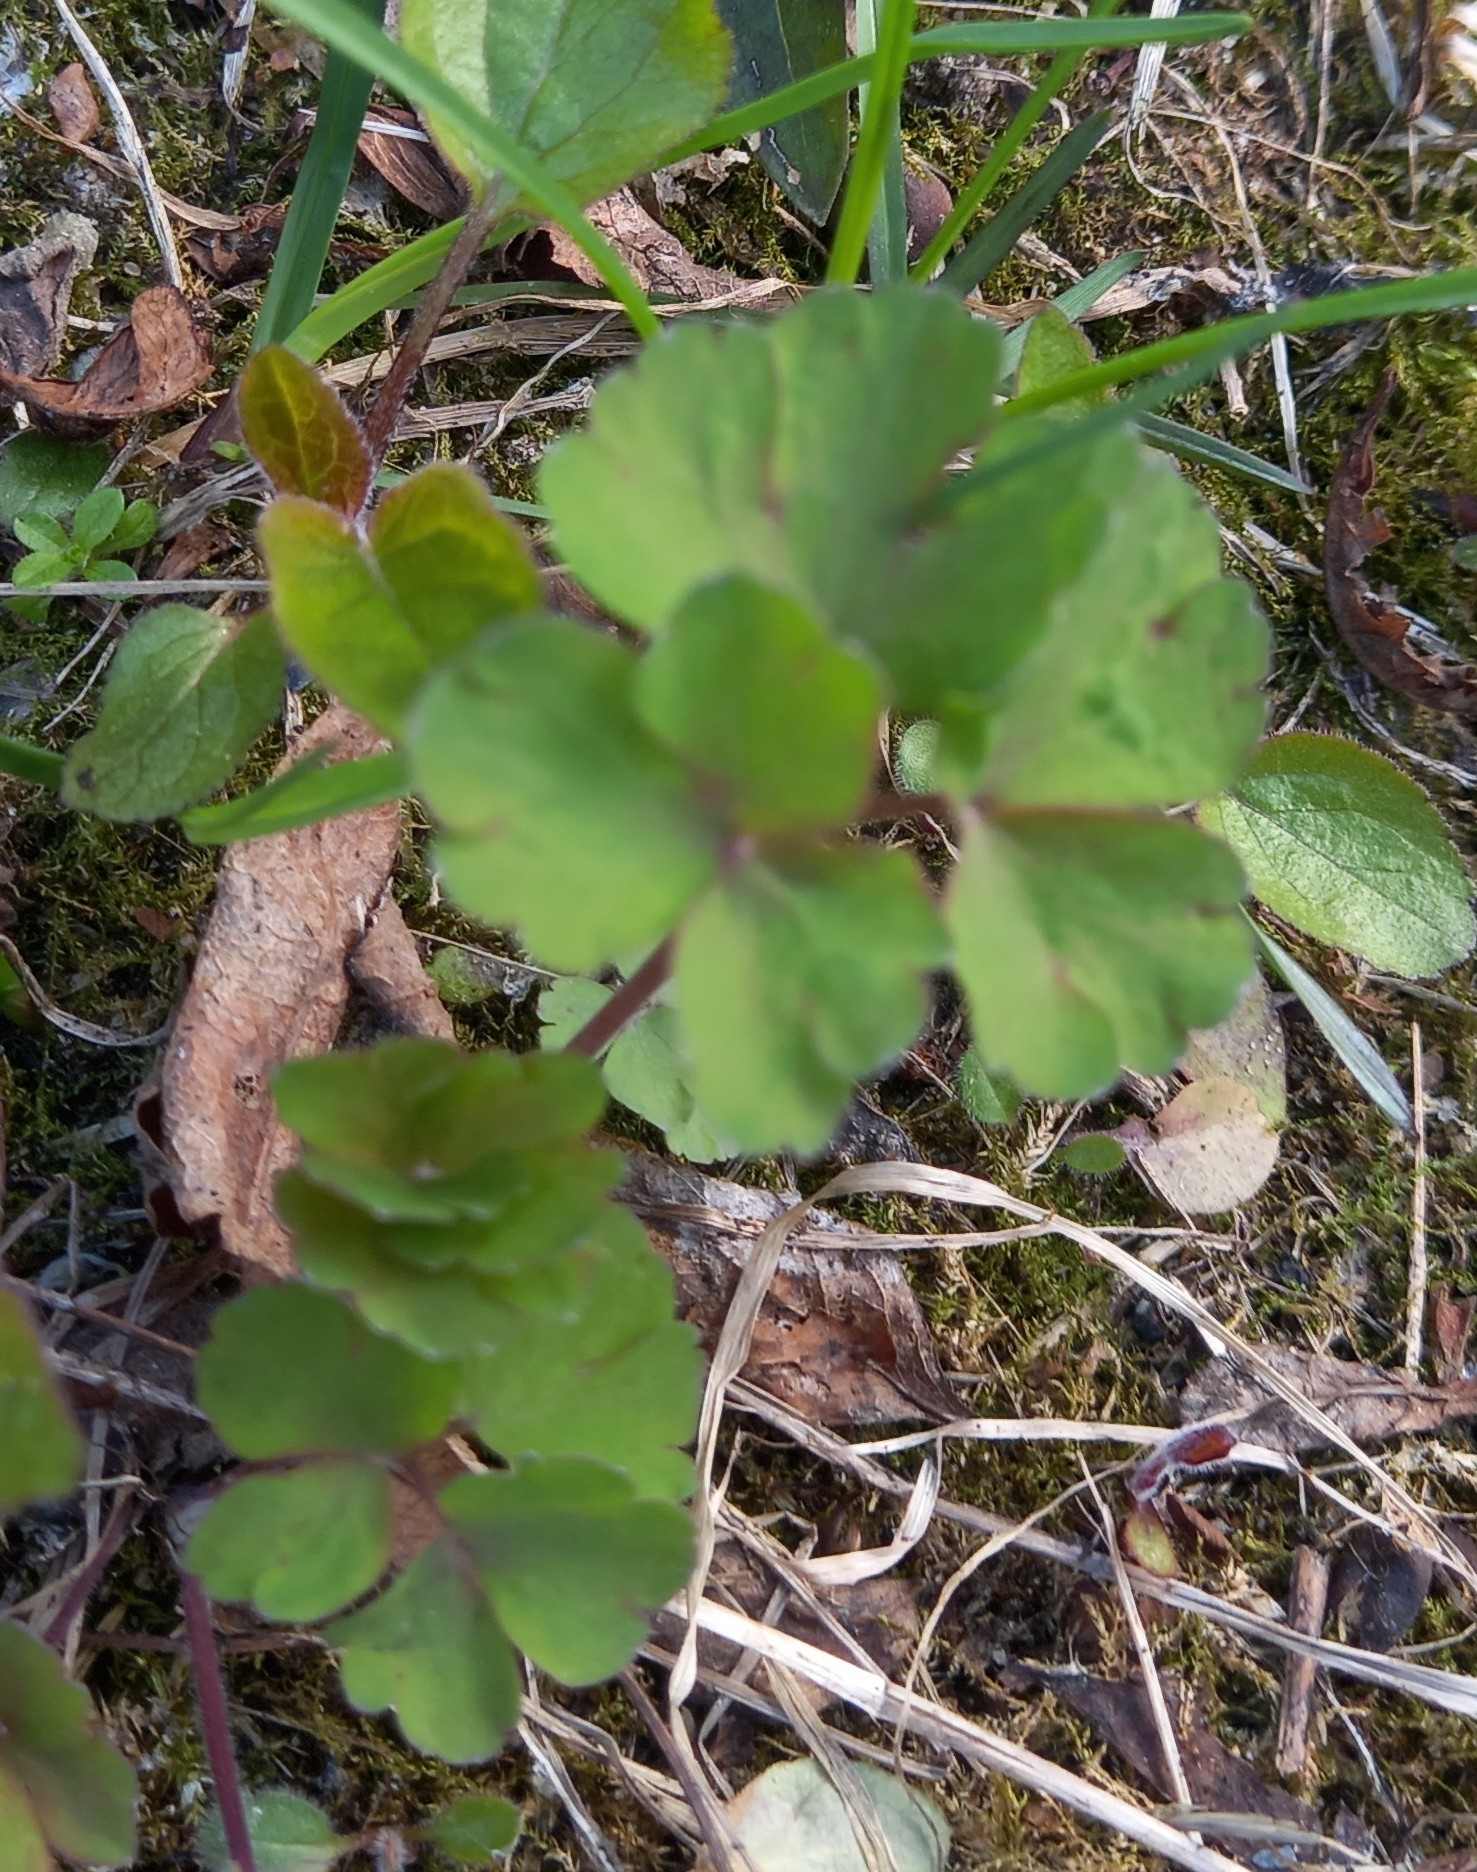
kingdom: Plantae
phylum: Tracheophyta
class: Magnoliopsida
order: Ranunculales
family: Ranunculaceae
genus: Aquilegia
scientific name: Aquilegia vulgaris
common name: Columbine
